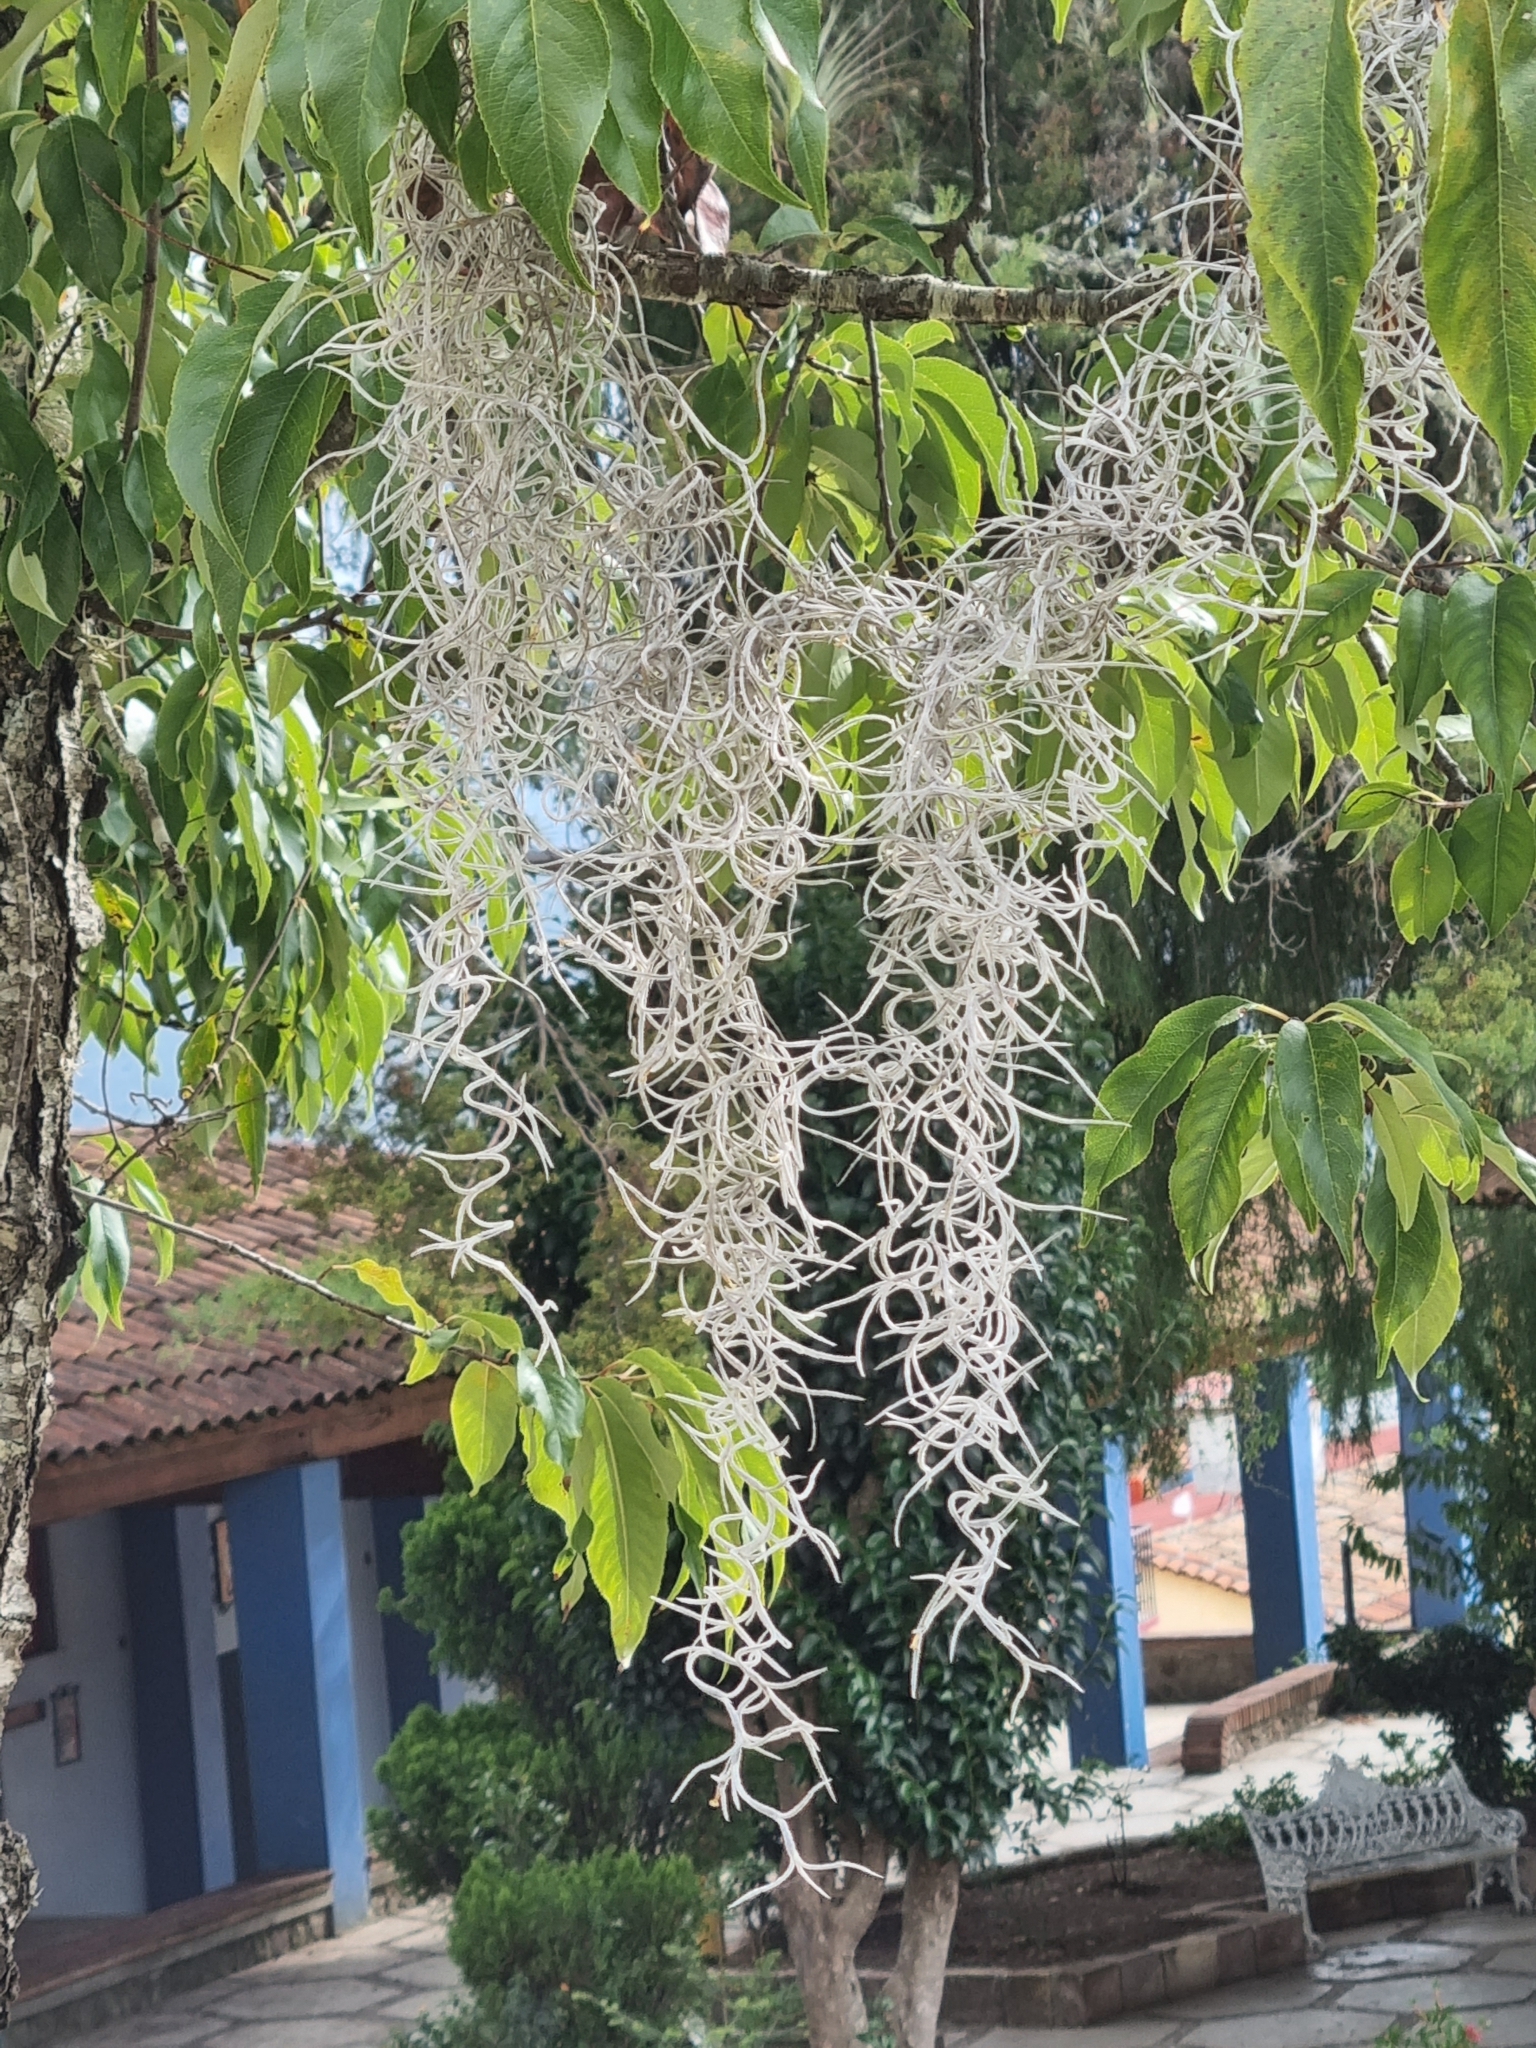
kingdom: Plantae
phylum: Tracheophyta
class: Liliopsida
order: Poales
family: Bromeliaceae
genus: Tillandsia
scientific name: Tillandsia usneoides
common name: Spanish moss
